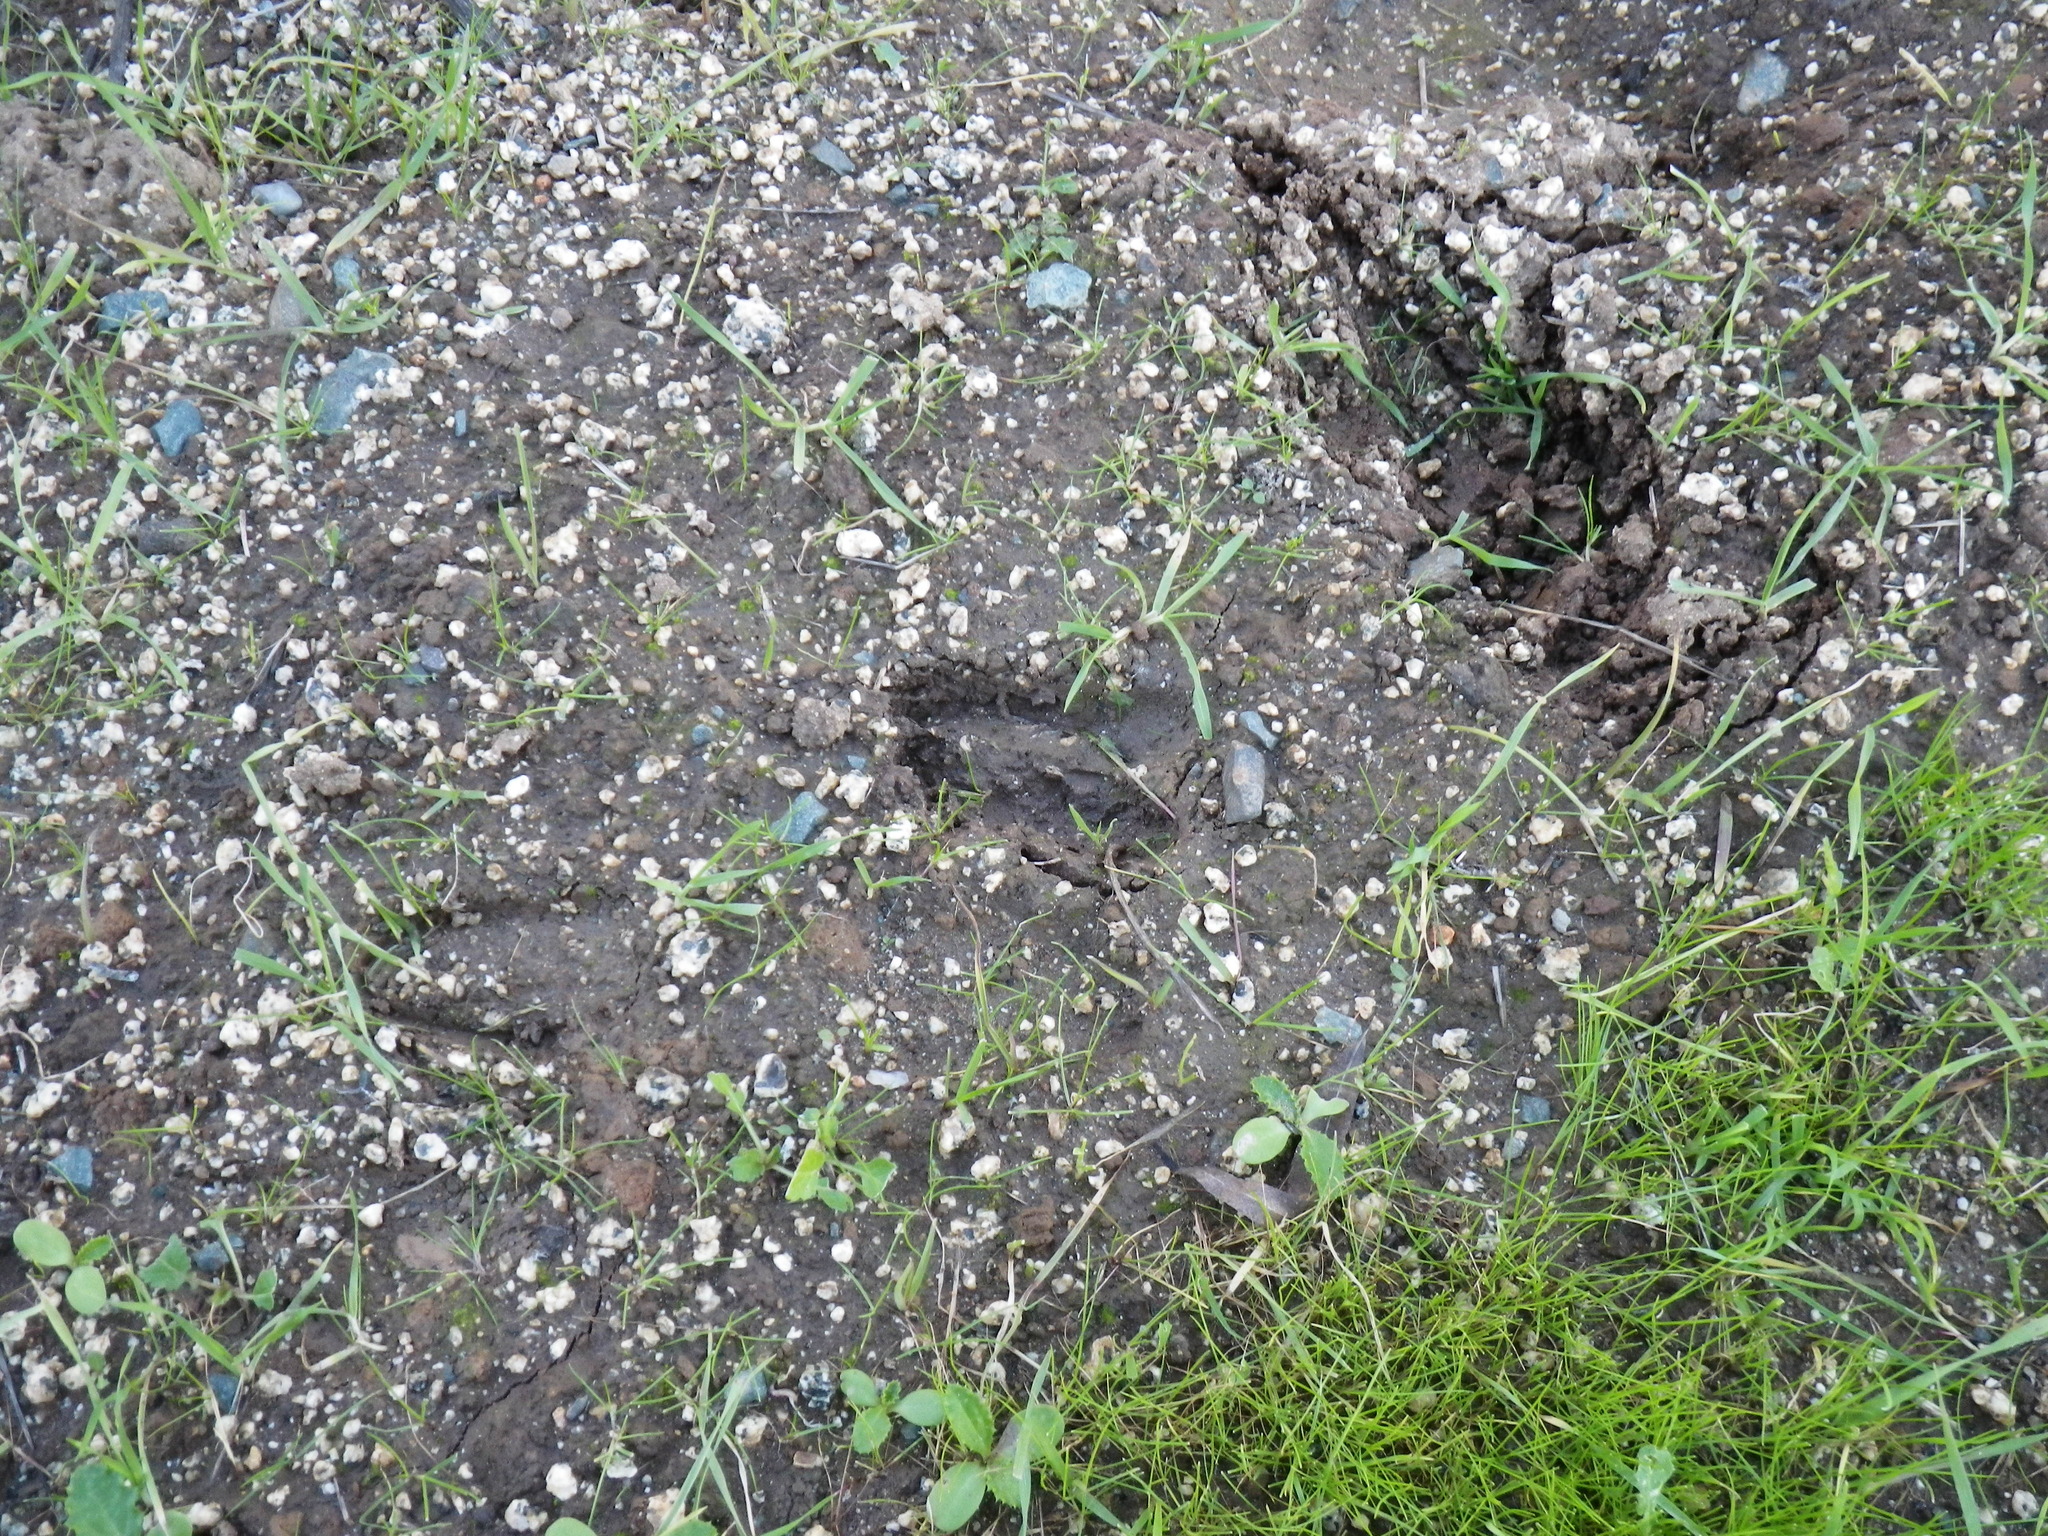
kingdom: Animalia
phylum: Chordata
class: Mammalia
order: Artiodactyla
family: Cervidae
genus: Odocoileus
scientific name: Odocoileus hemionus
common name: Mule deer
